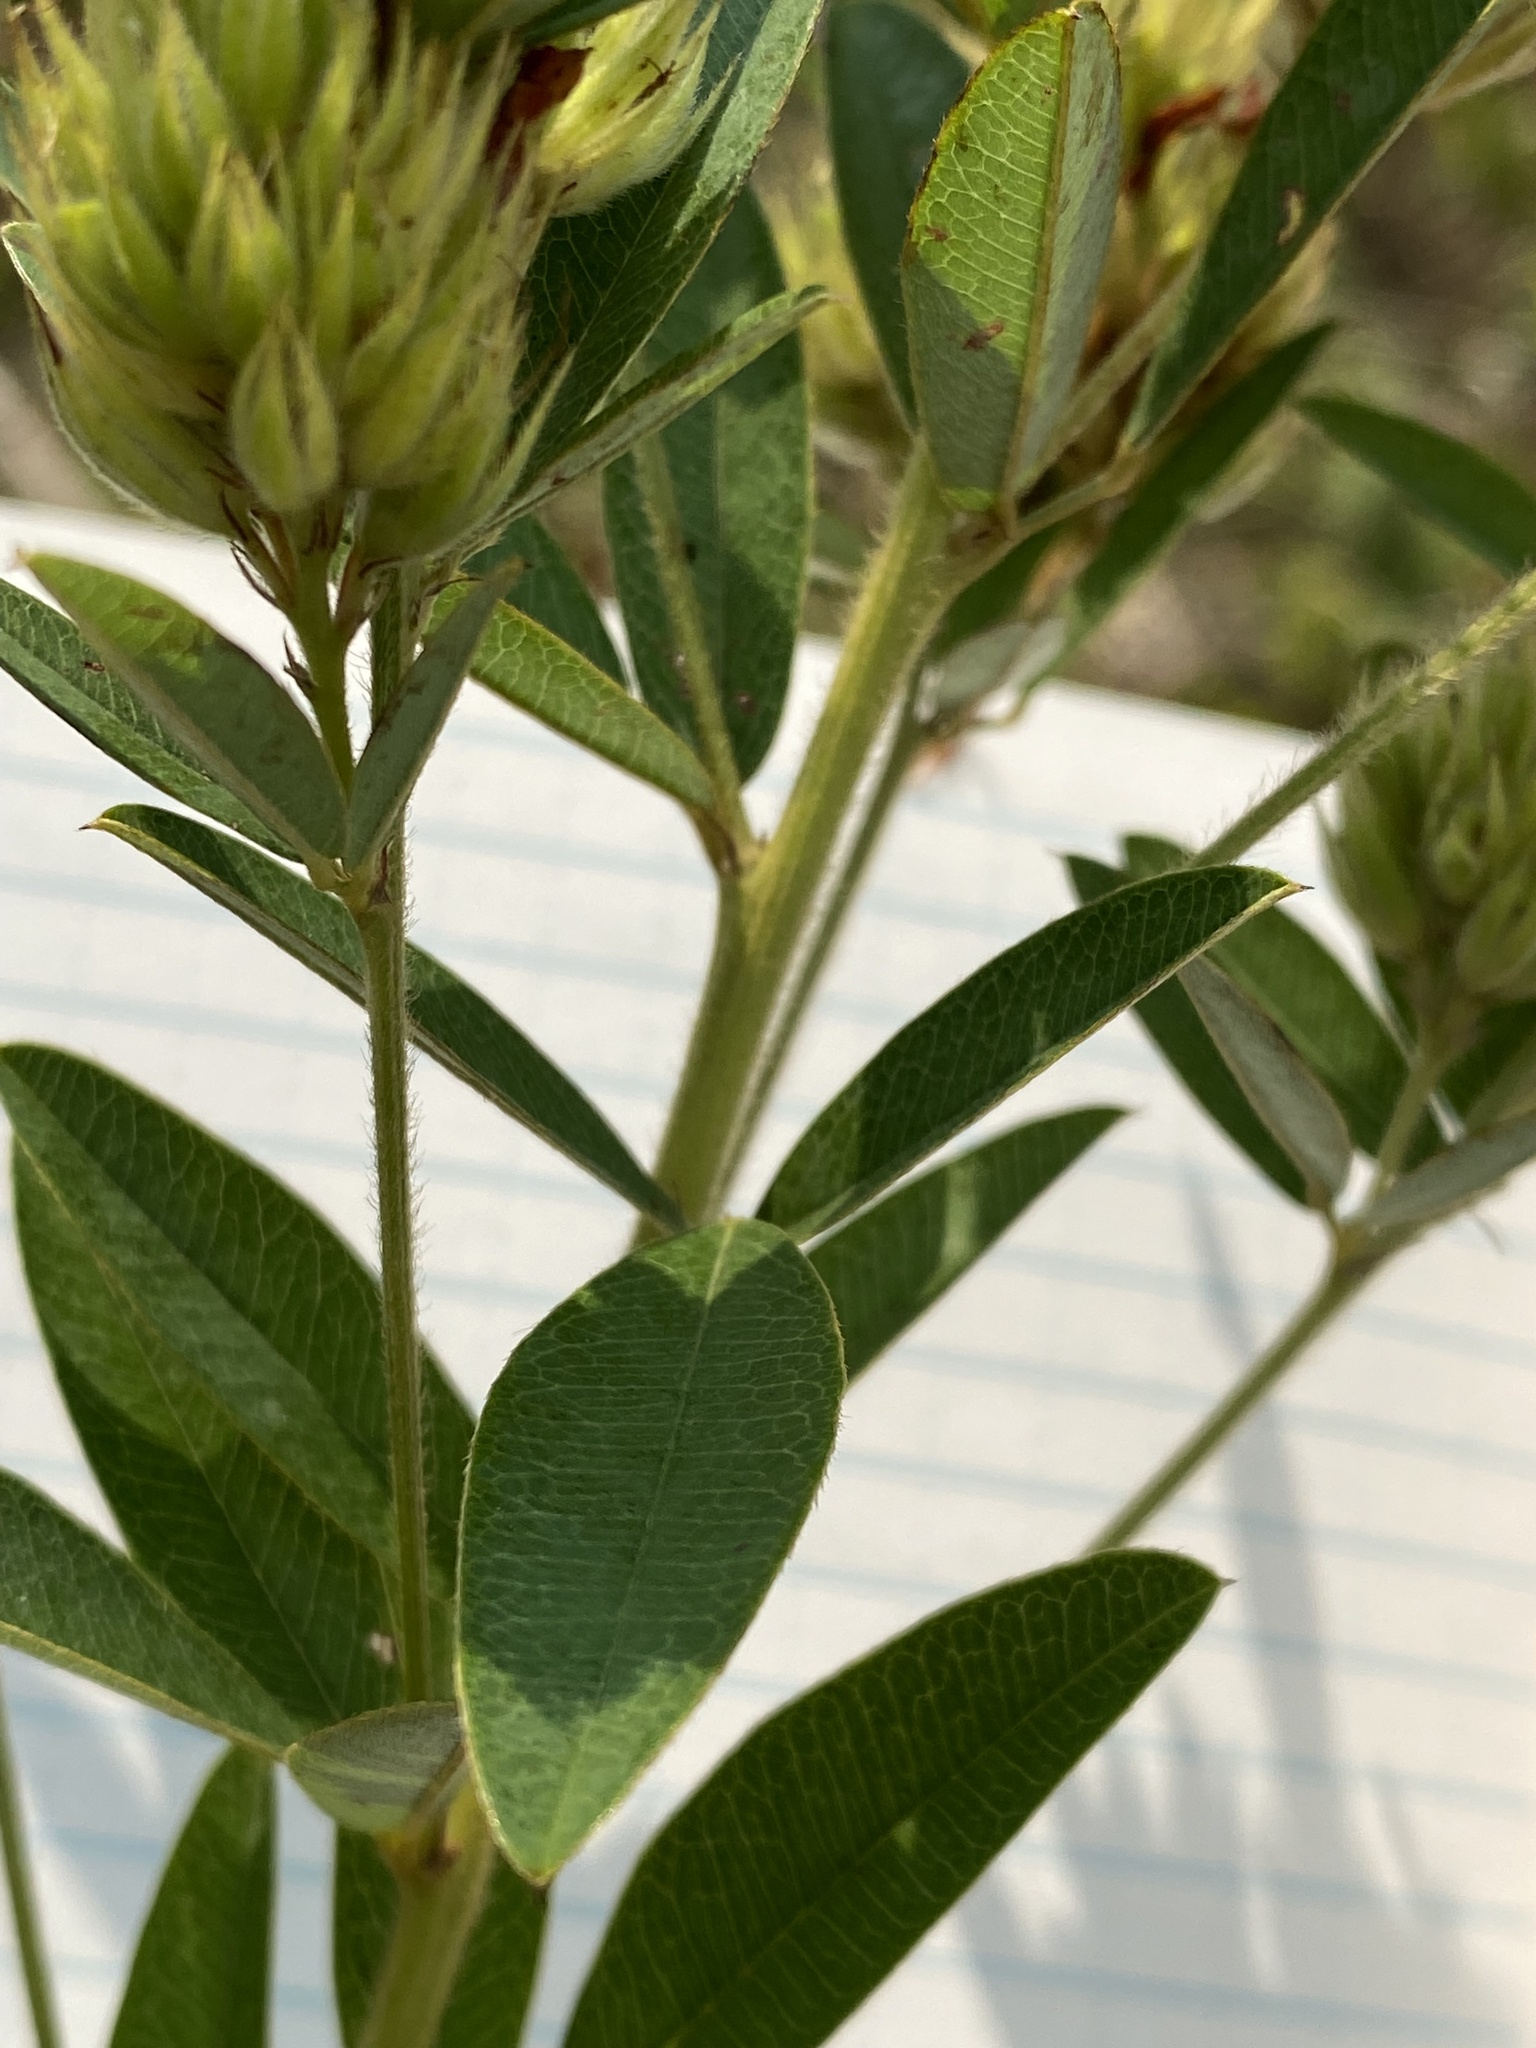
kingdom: Plantae
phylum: Tracheophyta
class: Magnoliopsida
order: Fabales
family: Fabaceae
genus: Lespedeza
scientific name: Lespedeza capitata
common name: Dusty clover
